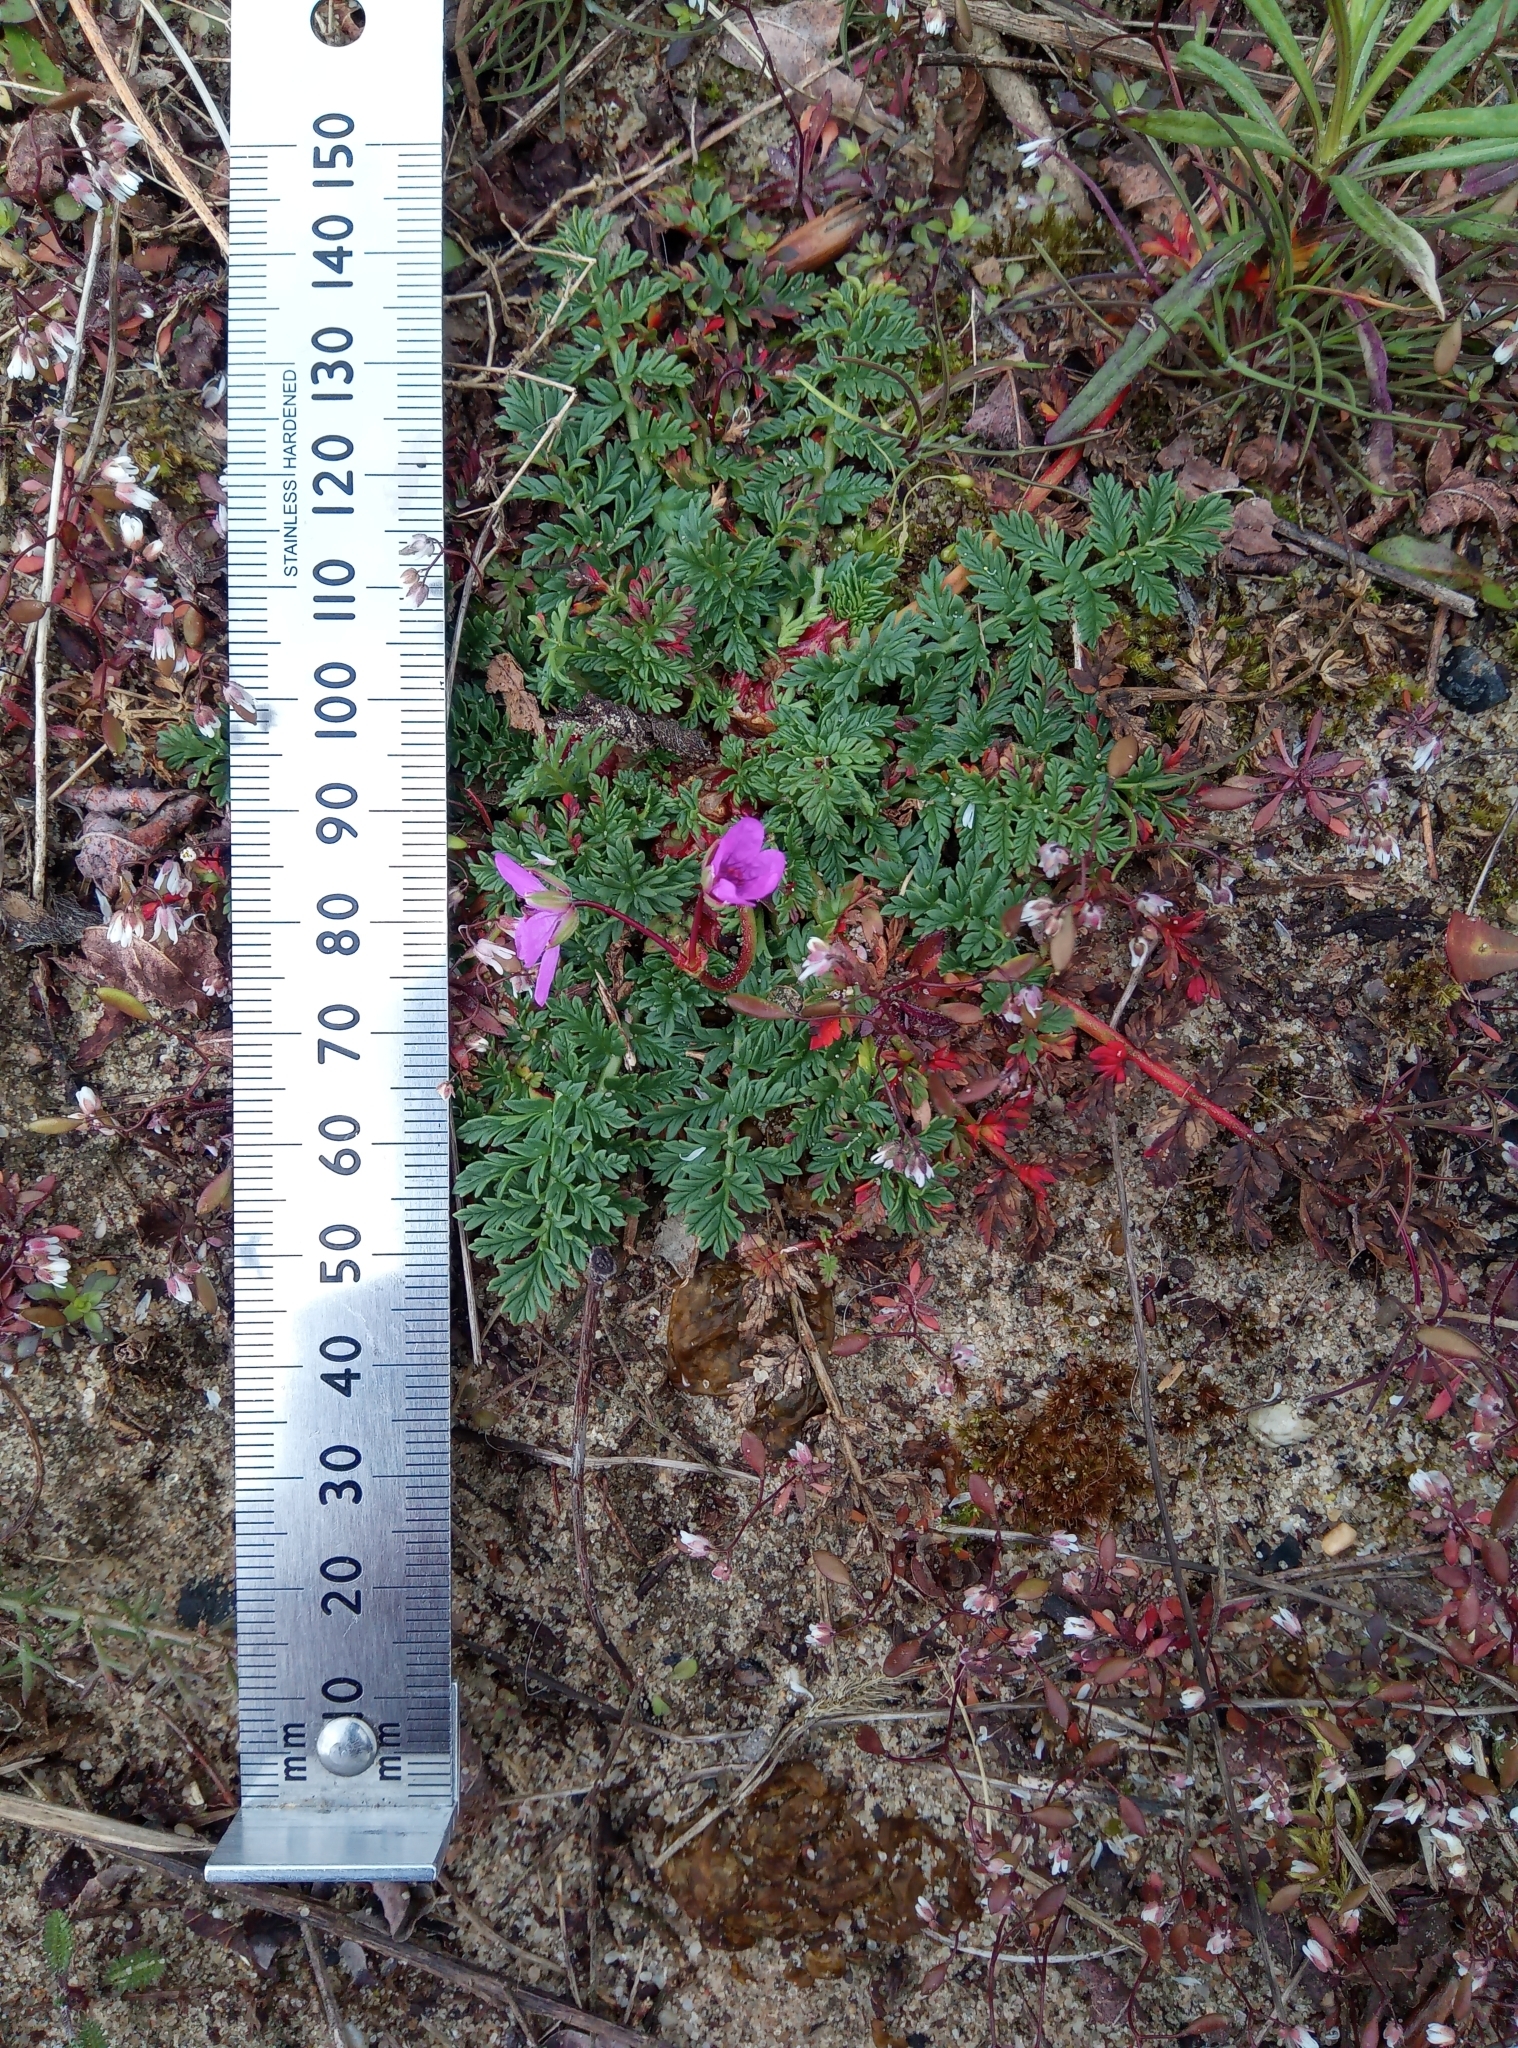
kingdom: Plantae
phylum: Tracheophyta
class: Magnoliopsida
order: Geraniales
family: Geraniaceae
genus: Erodium
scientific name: Erodium cicutarium
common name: Common stork's-bill
